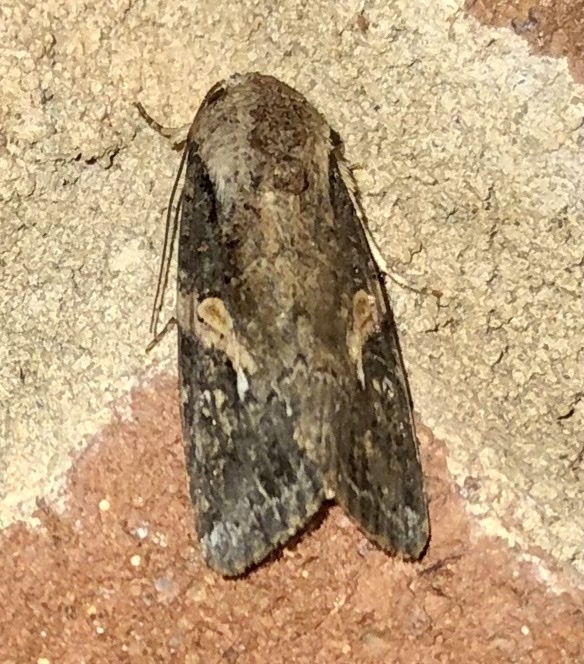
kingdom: Animalia
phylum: Arthropoda
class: Insecta
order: Lepidoptera
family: Noctuidae
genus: Spodoptera
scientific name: Spodoptera frugiperda
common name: Fall armyworm
